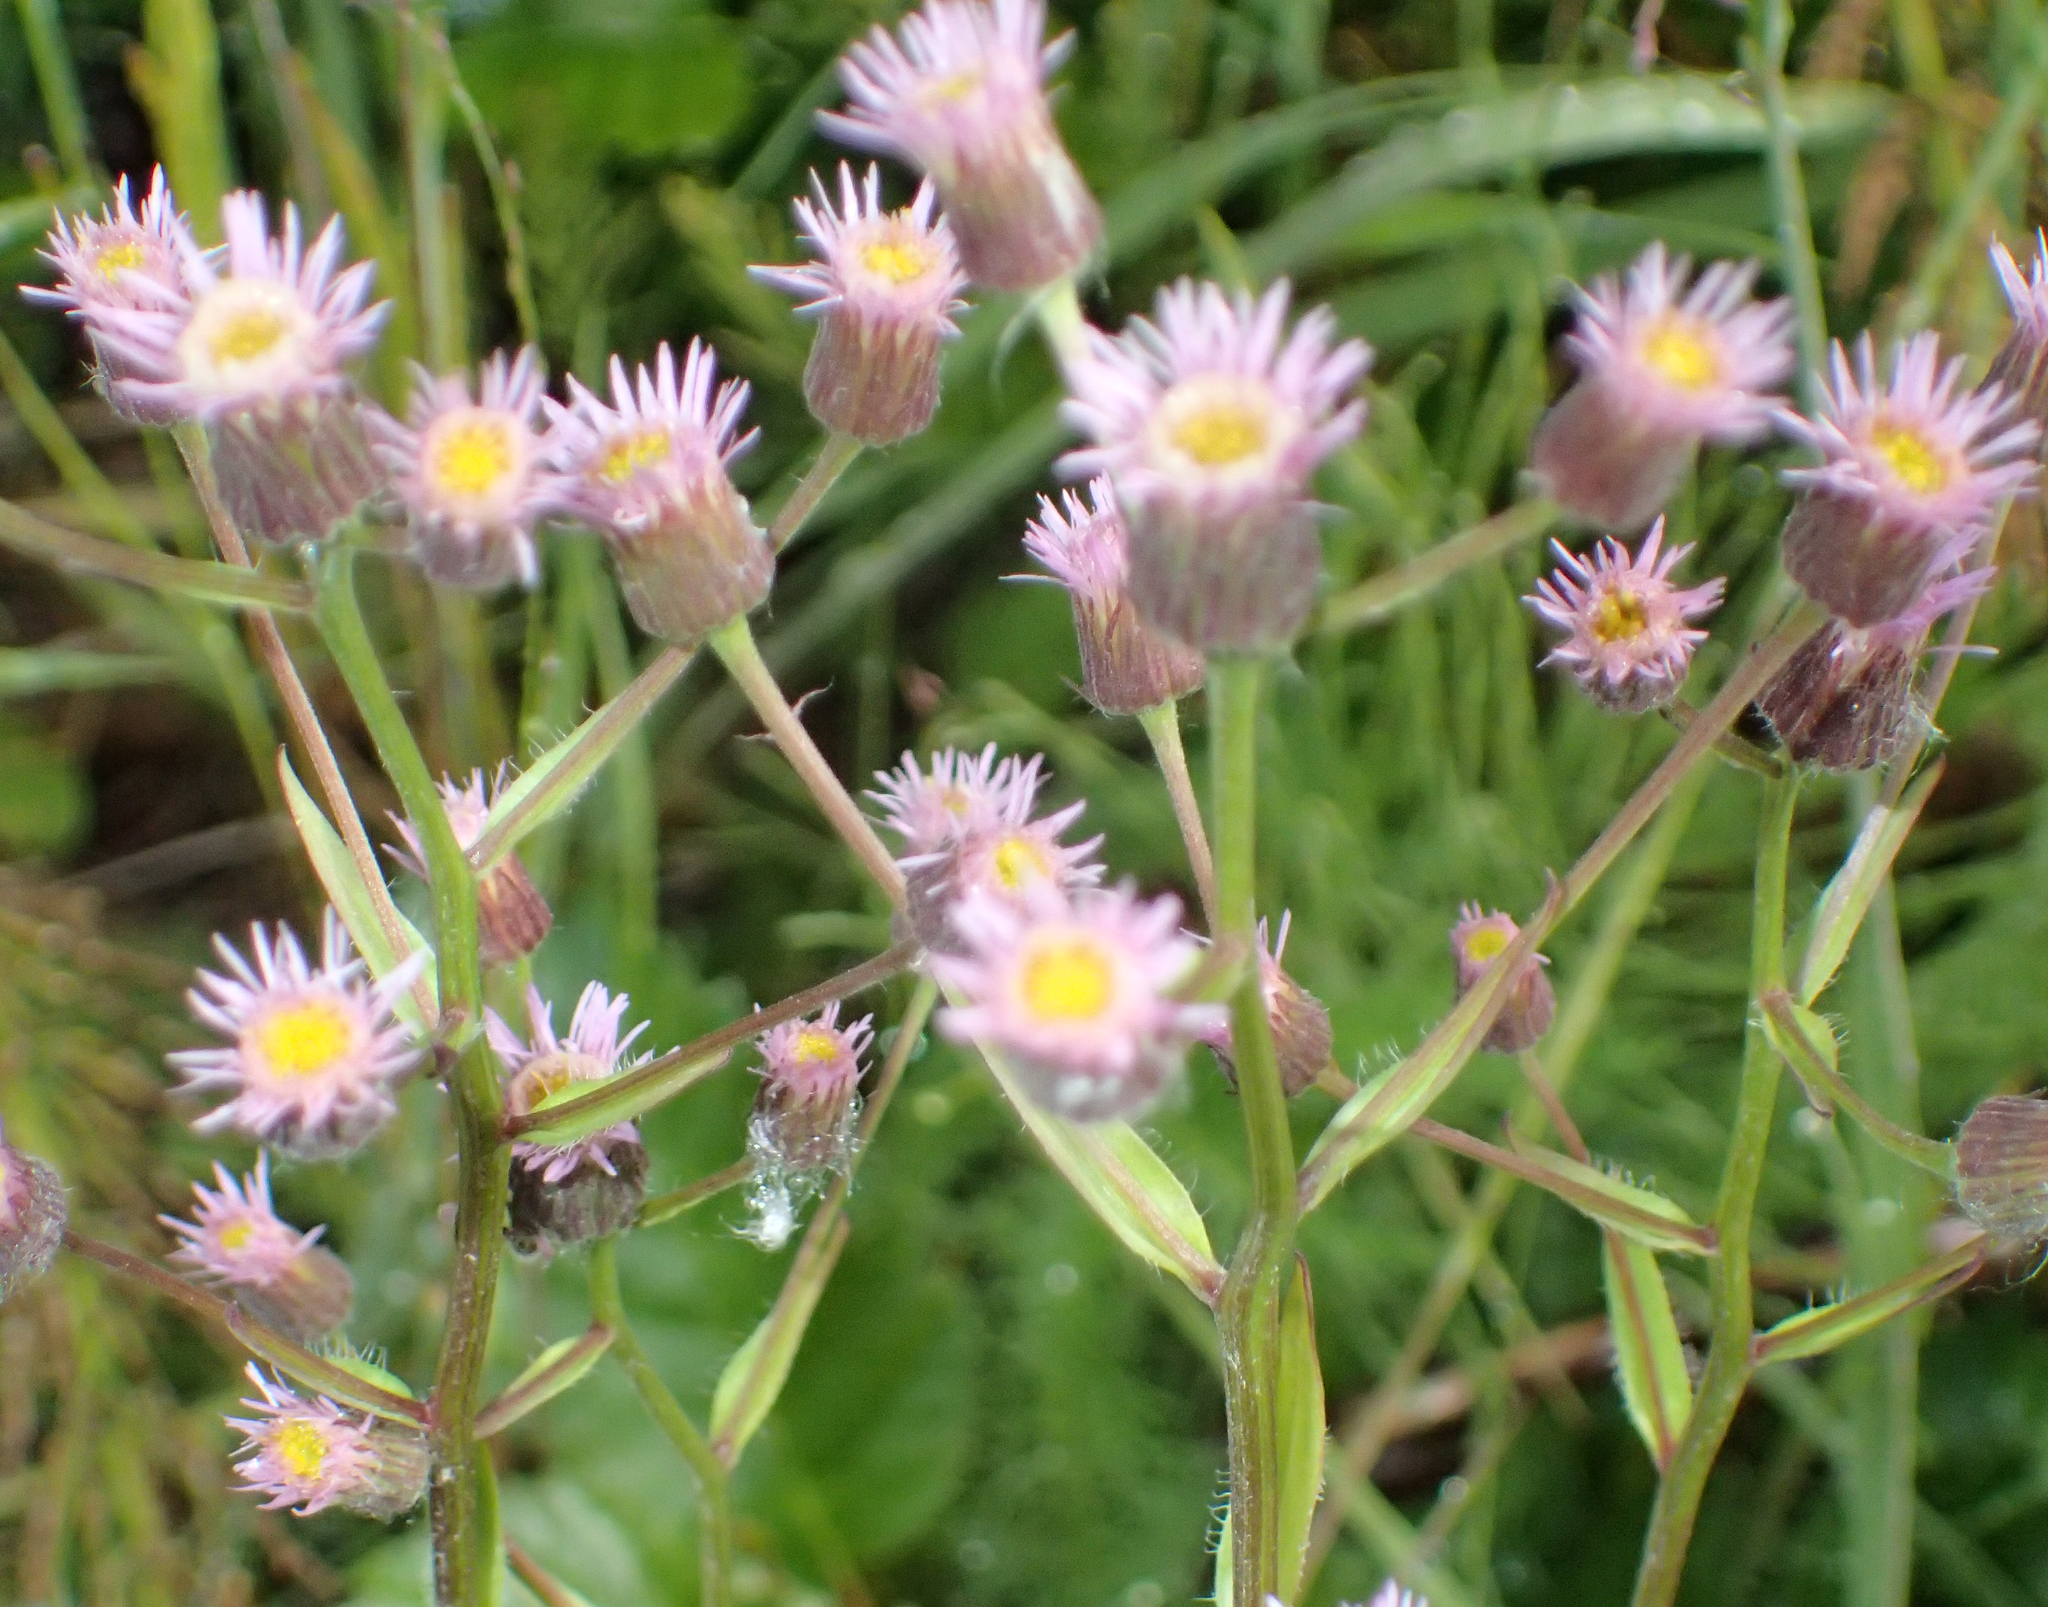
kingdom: Plantae
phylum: Tracheophyta
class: Magnoliopsida
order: Asterales
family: Asteraceae
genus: Erigeron
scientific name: Erigeron acris
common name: Blue fleabane
